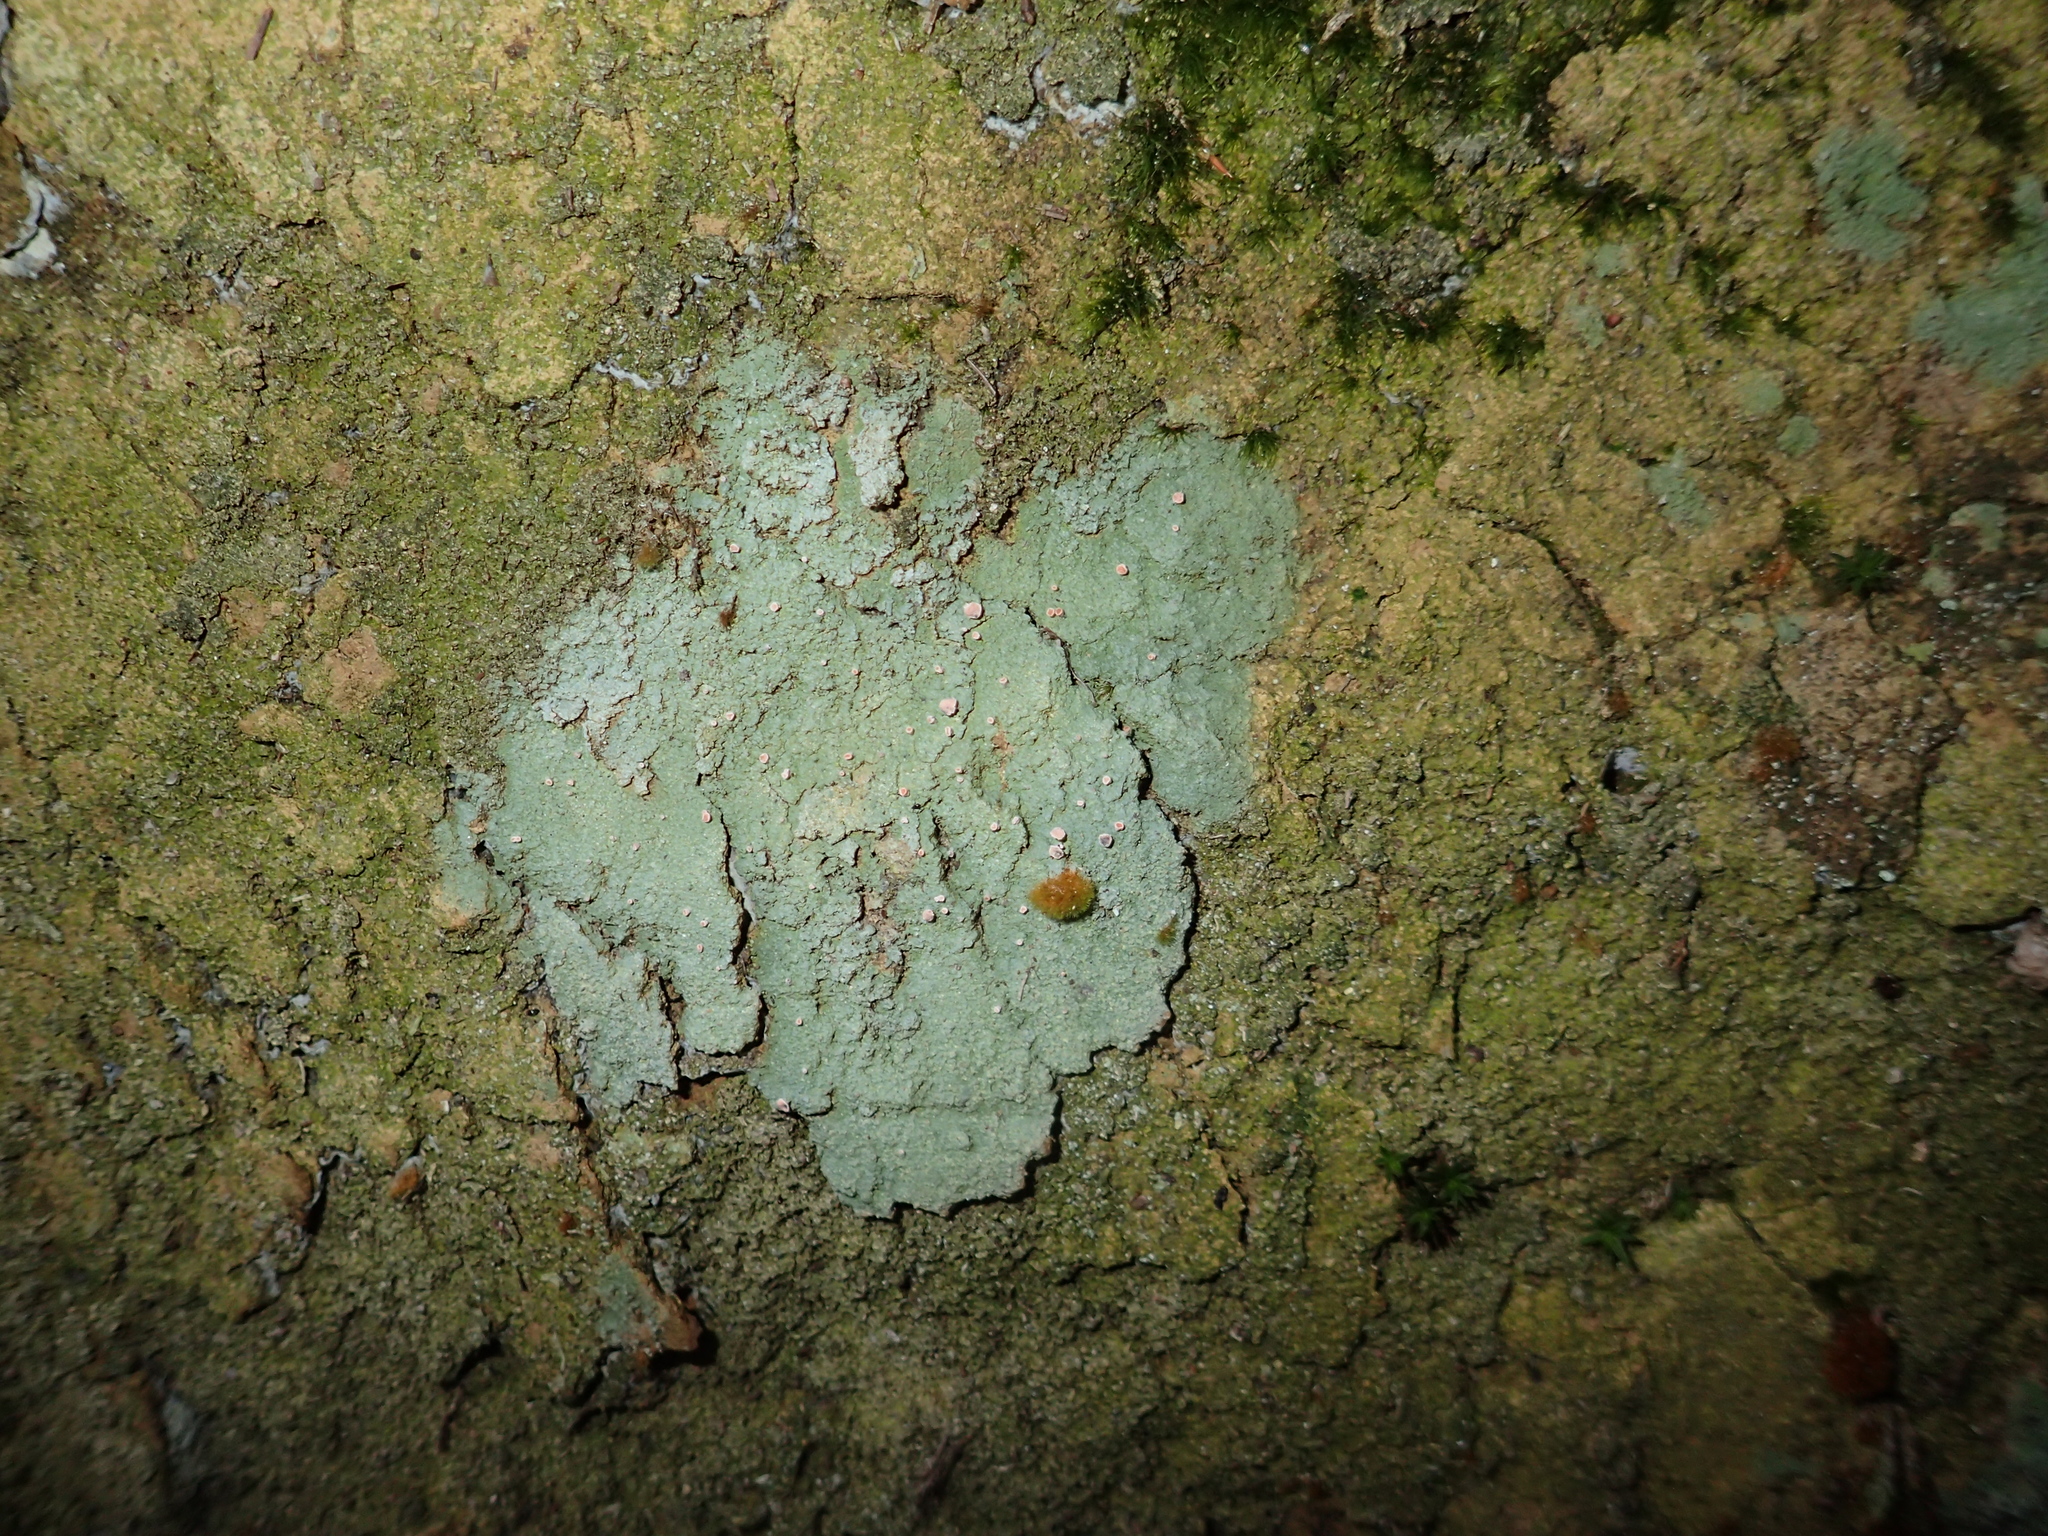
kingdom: Fungi
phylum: Ascomycota
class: Lecanoromycetes
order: Baeomycetales
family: Baeomycetaceae
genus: Baeomyces
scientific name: Baeomyces heteromorphus
